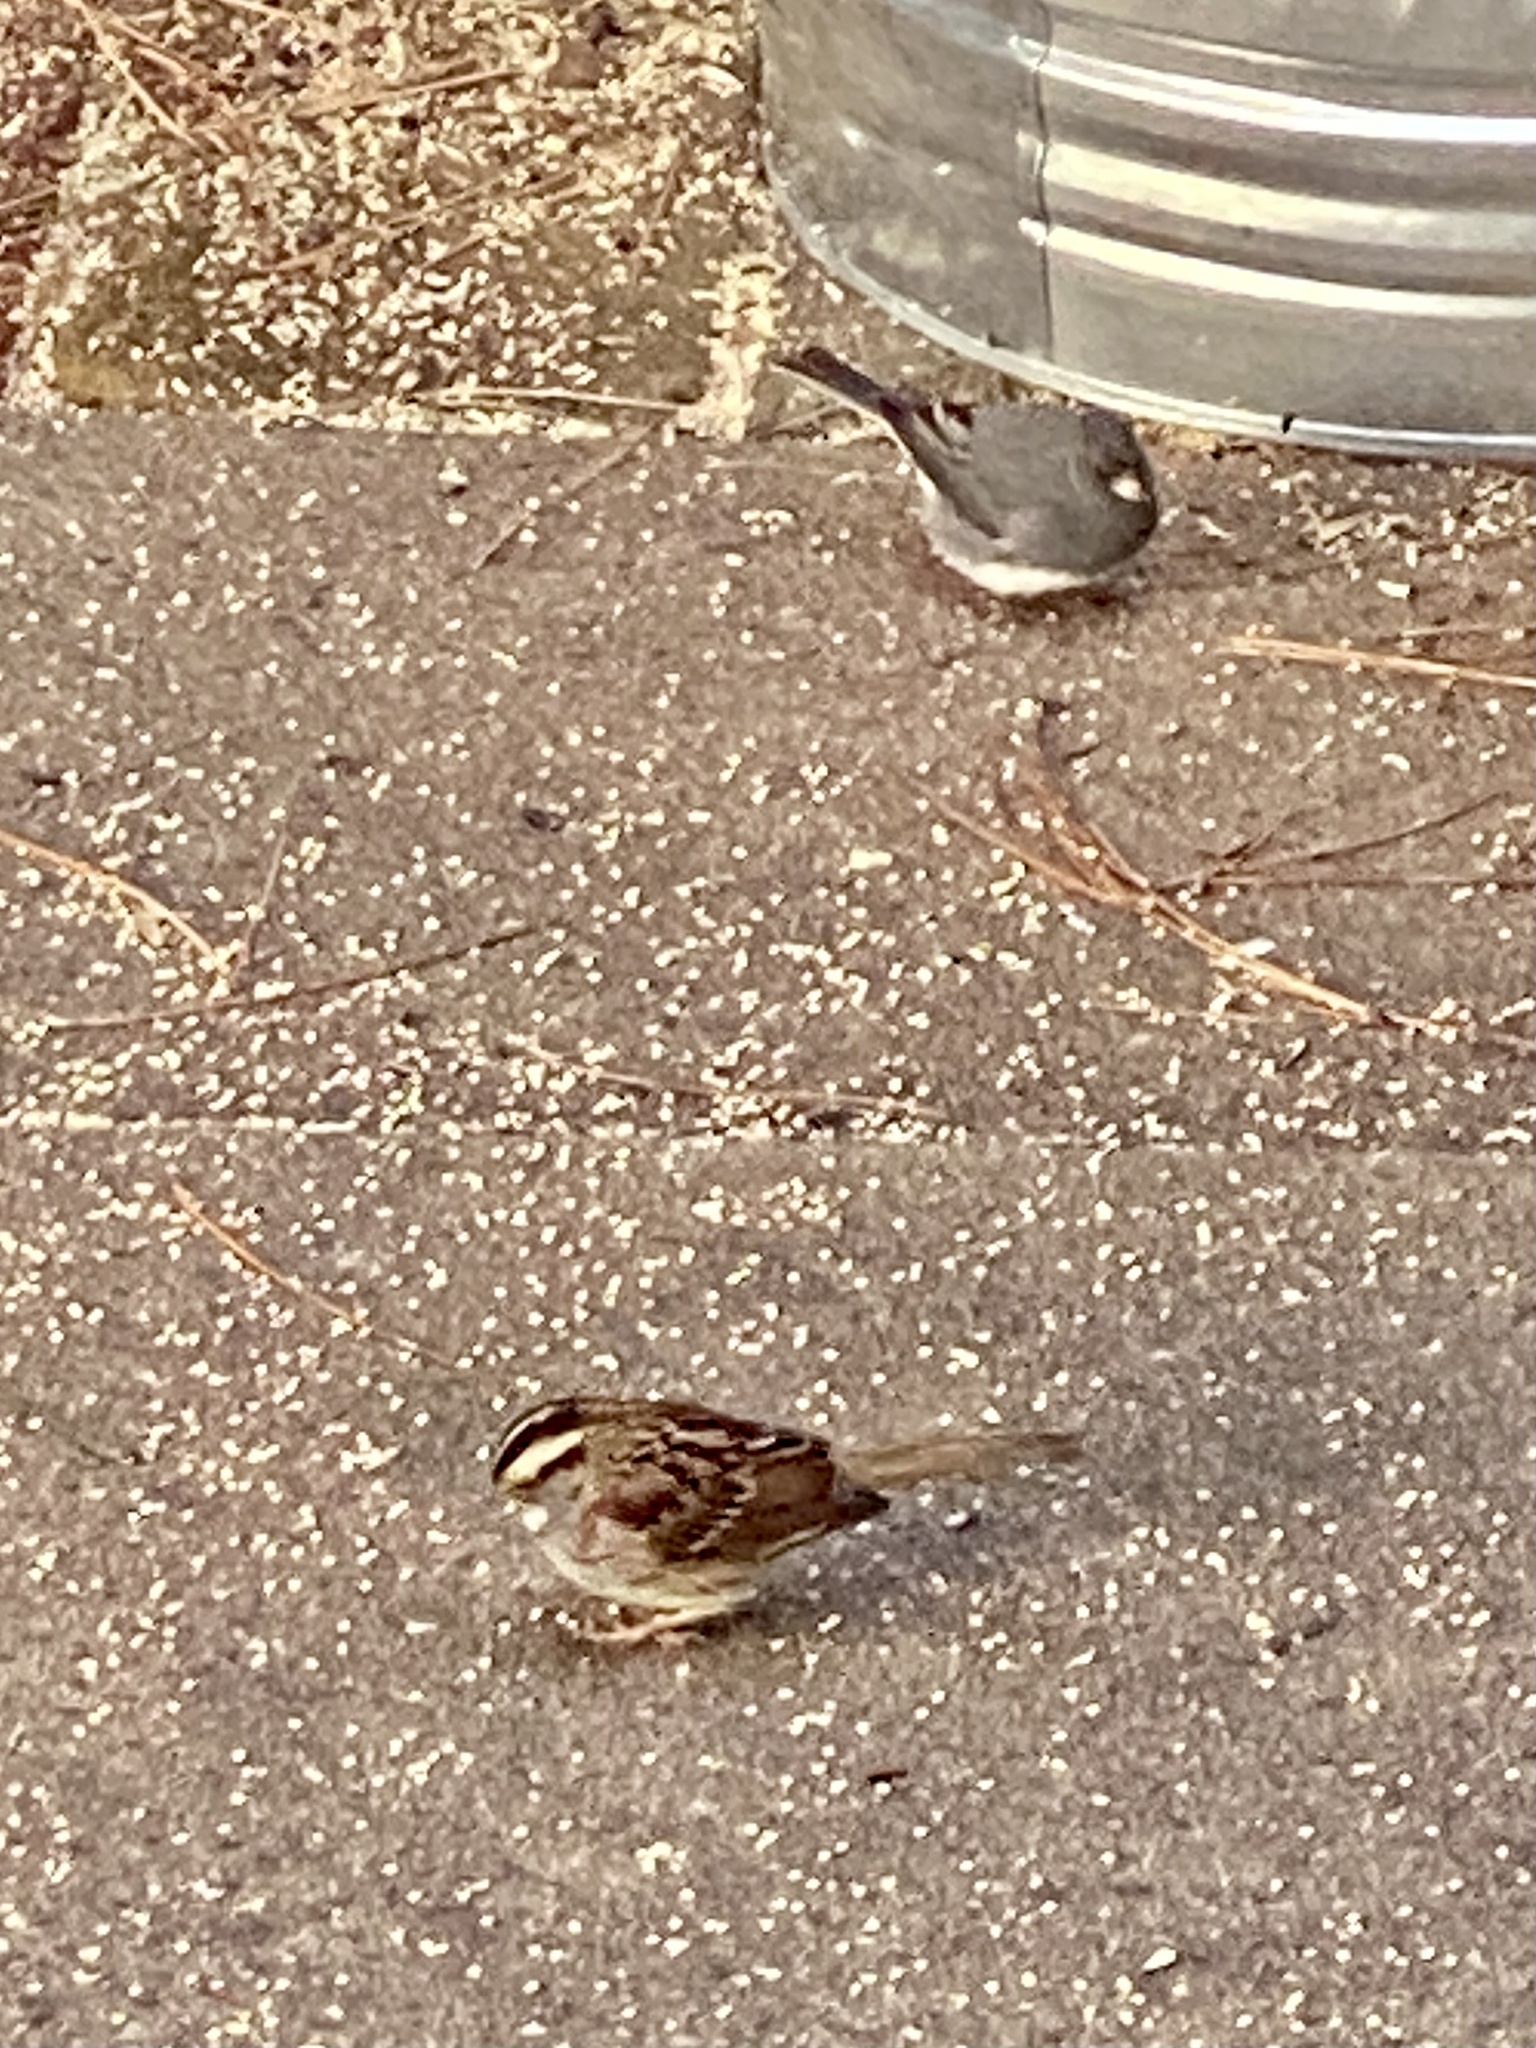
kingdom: Animalia
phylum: Chordata
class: Aves
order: Passeriformes
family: Passerellidae
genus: Zonotrichia
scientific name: Zonotrichia albicollis
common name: White-throated sparrow
